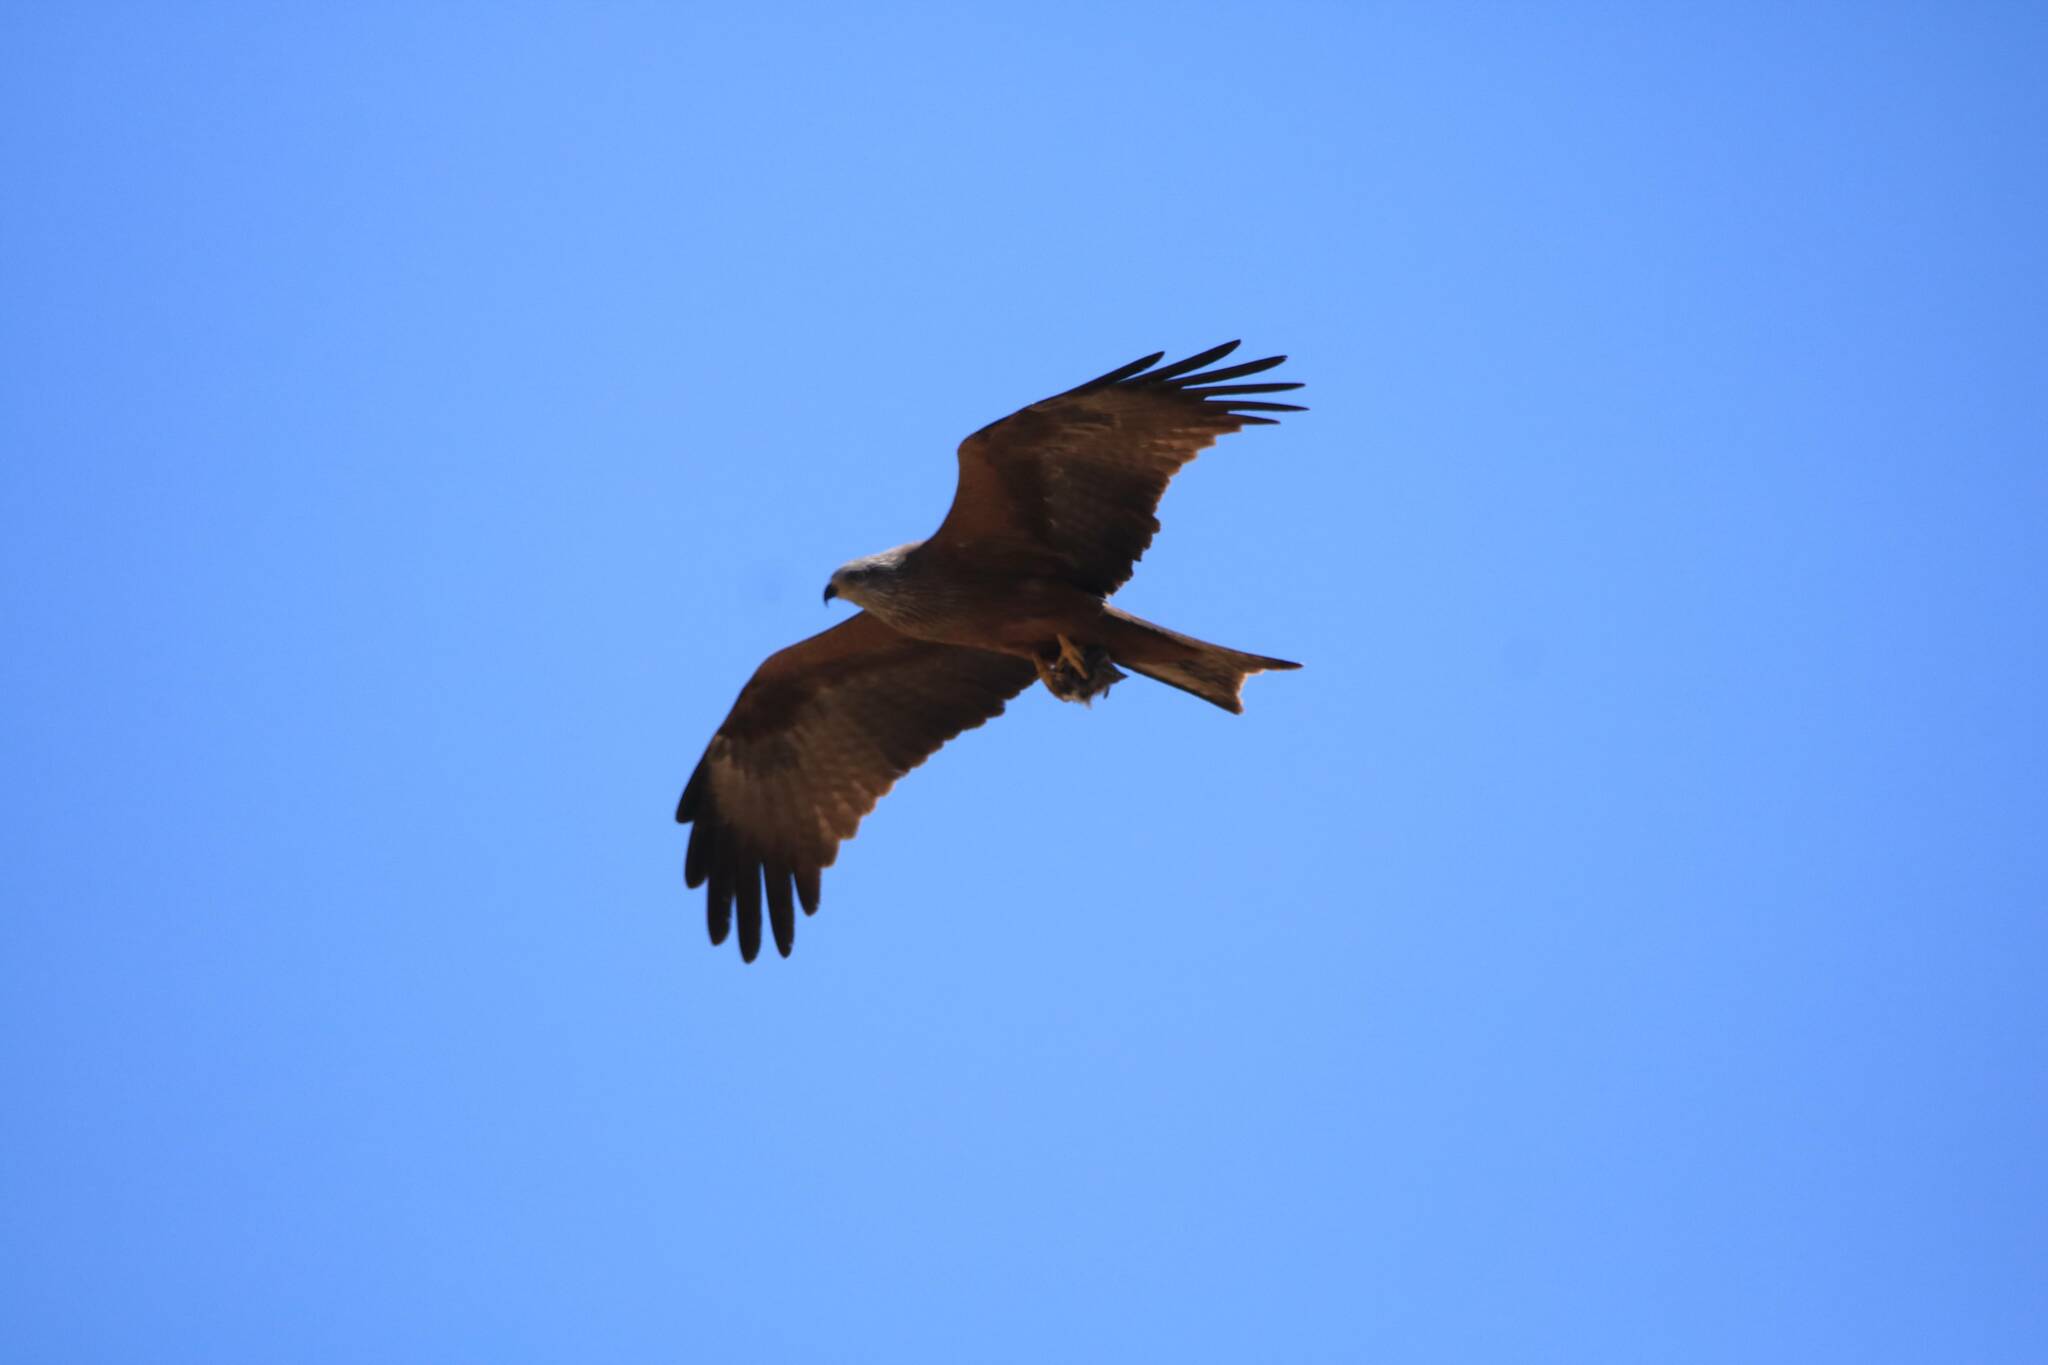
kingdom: Animalia
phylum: Chordata
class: Aves
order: Accipitriformes
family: Accipitridae
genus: Milvus
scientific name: Milvus migrans
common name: Black kite
